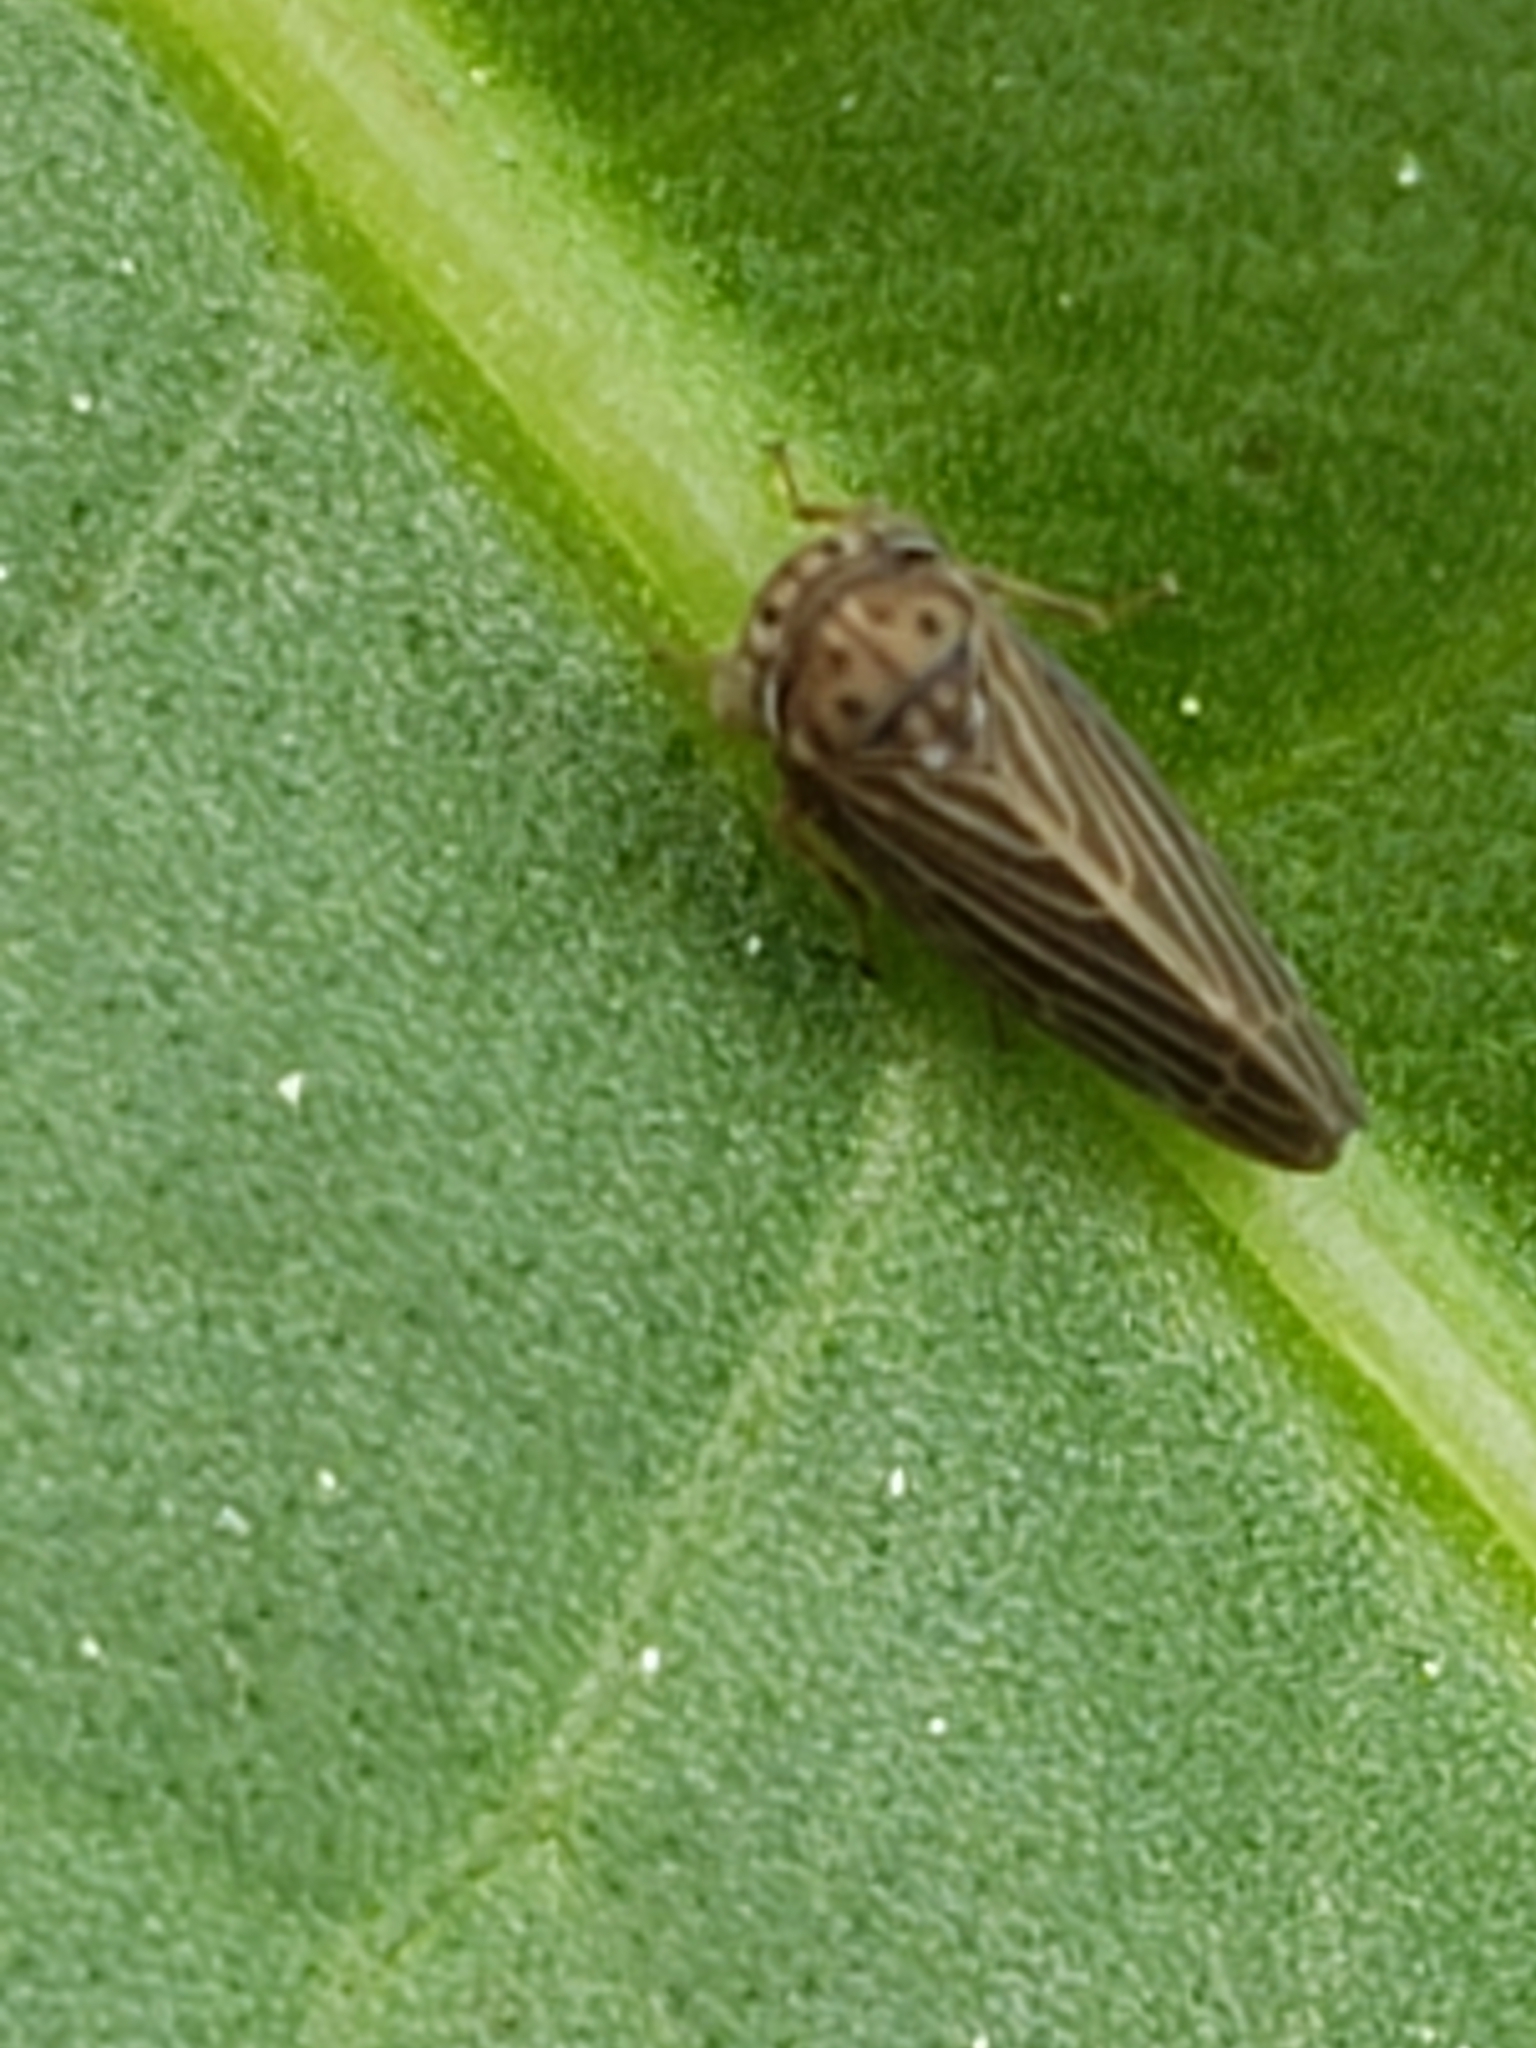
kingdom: Animalia
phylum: Arthropoda
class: Insecta
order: Hemiptera
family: Cicadellidae
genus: Agallia
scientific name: Agallia constricta
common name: The constricted leafhopper
